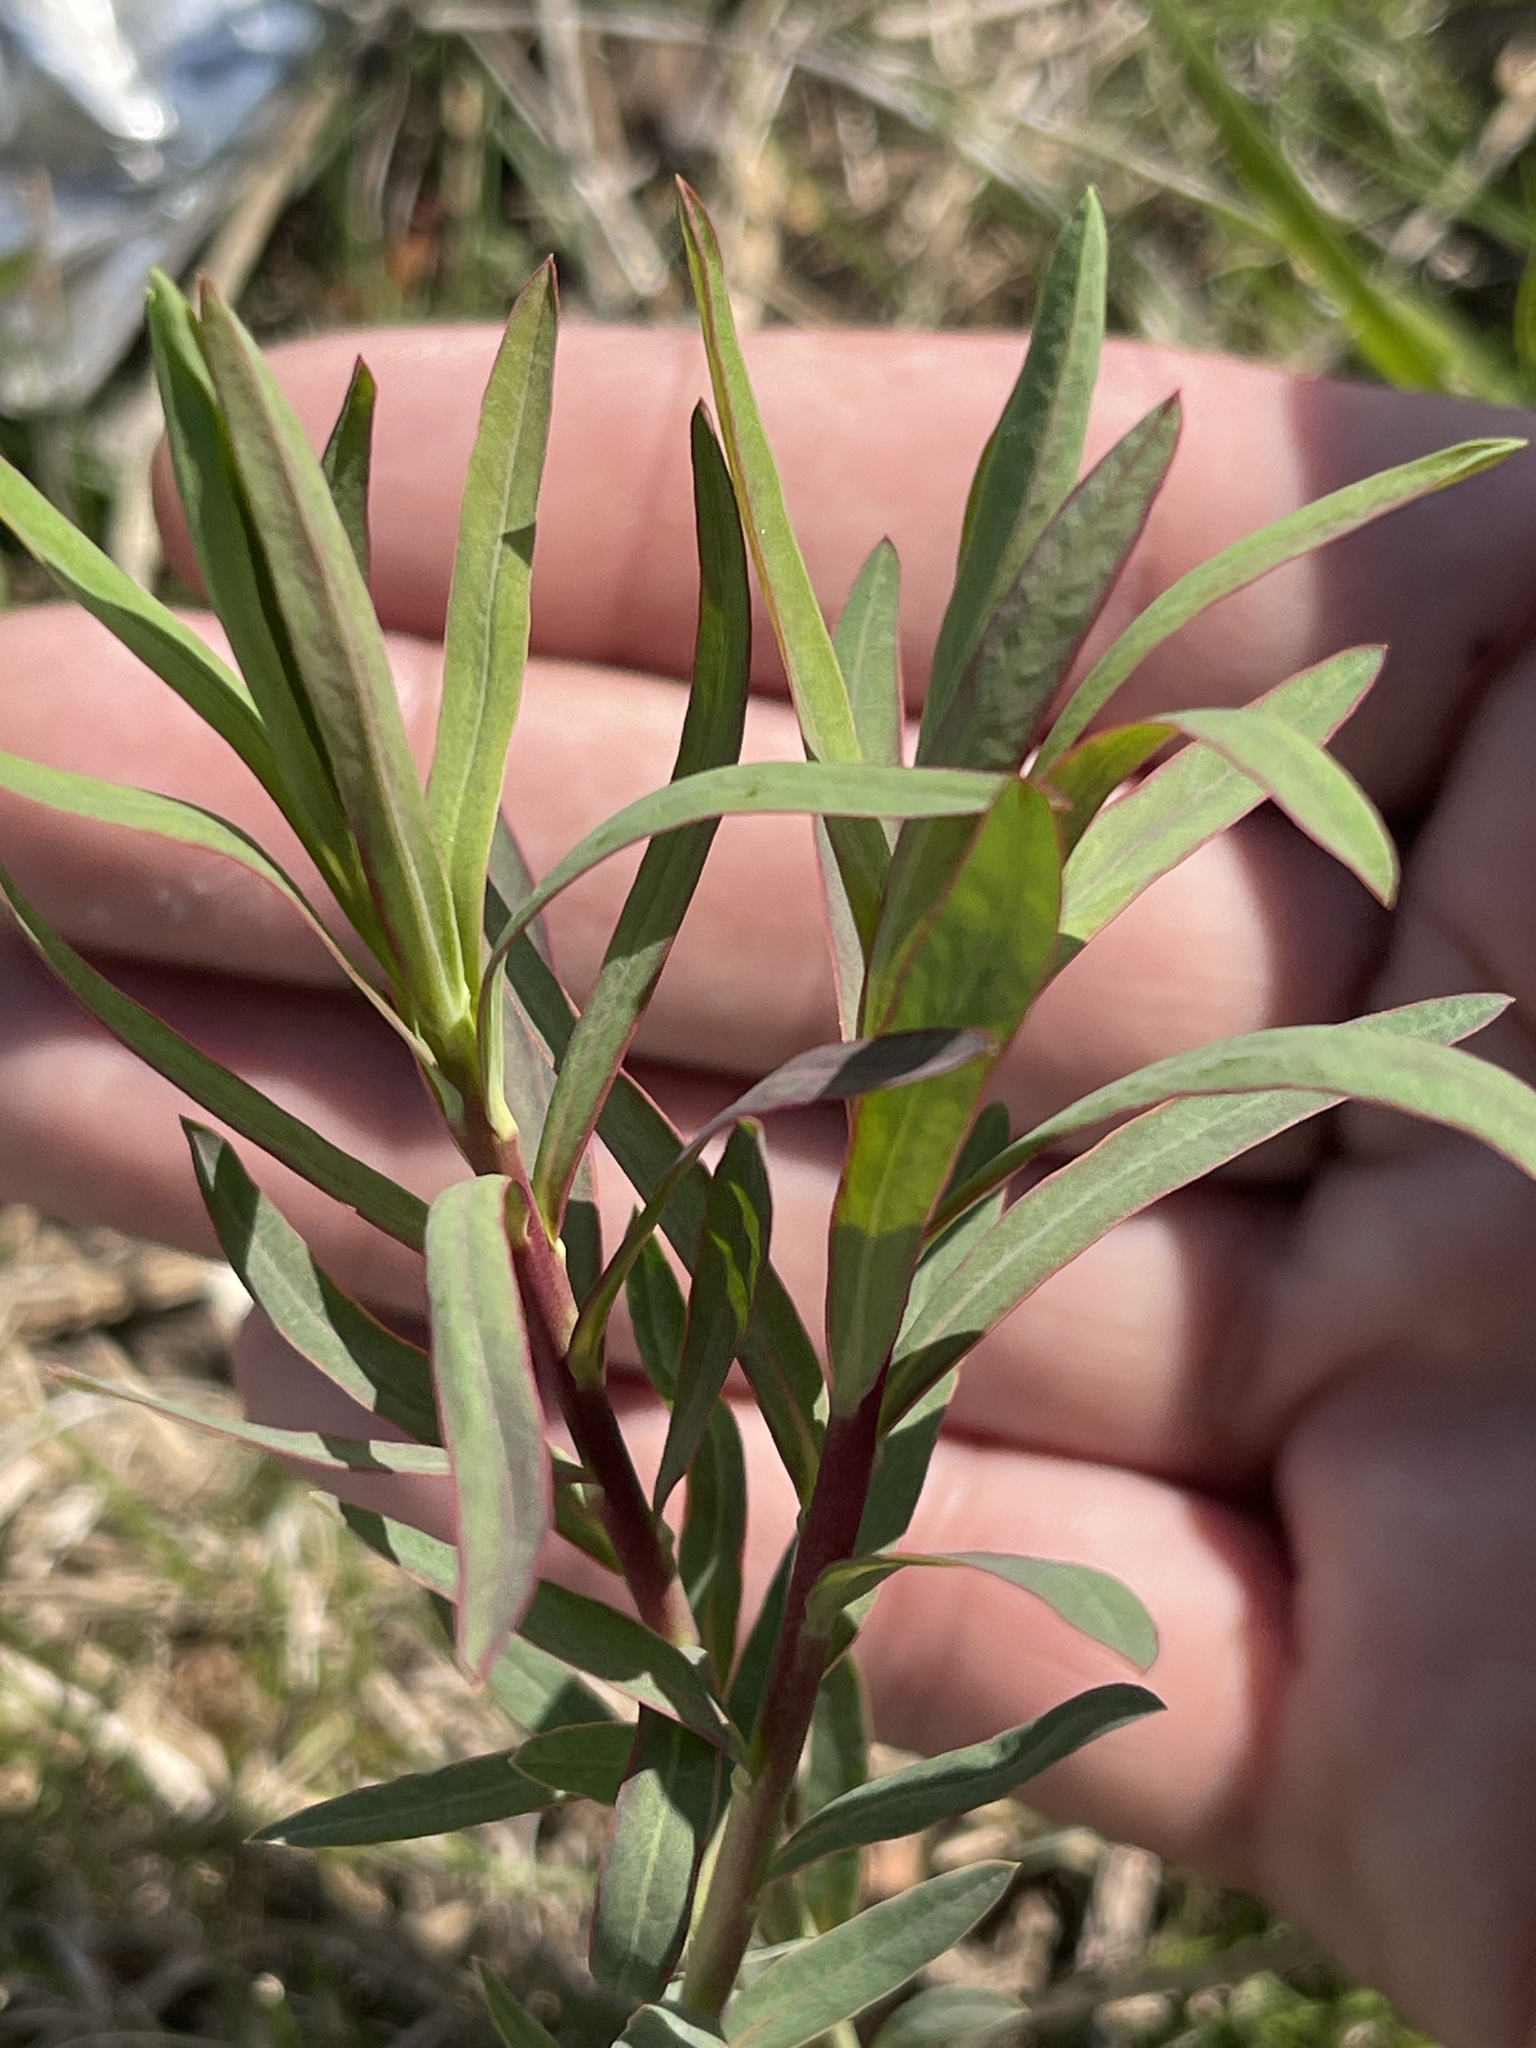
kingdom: Plantae
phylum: Tracheophyta
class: Magnoliopsida
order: Malpighiales
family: Euphorbiaceae
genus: Euphorbia
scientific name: Euphorbia virgata
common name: Leafy spurge
